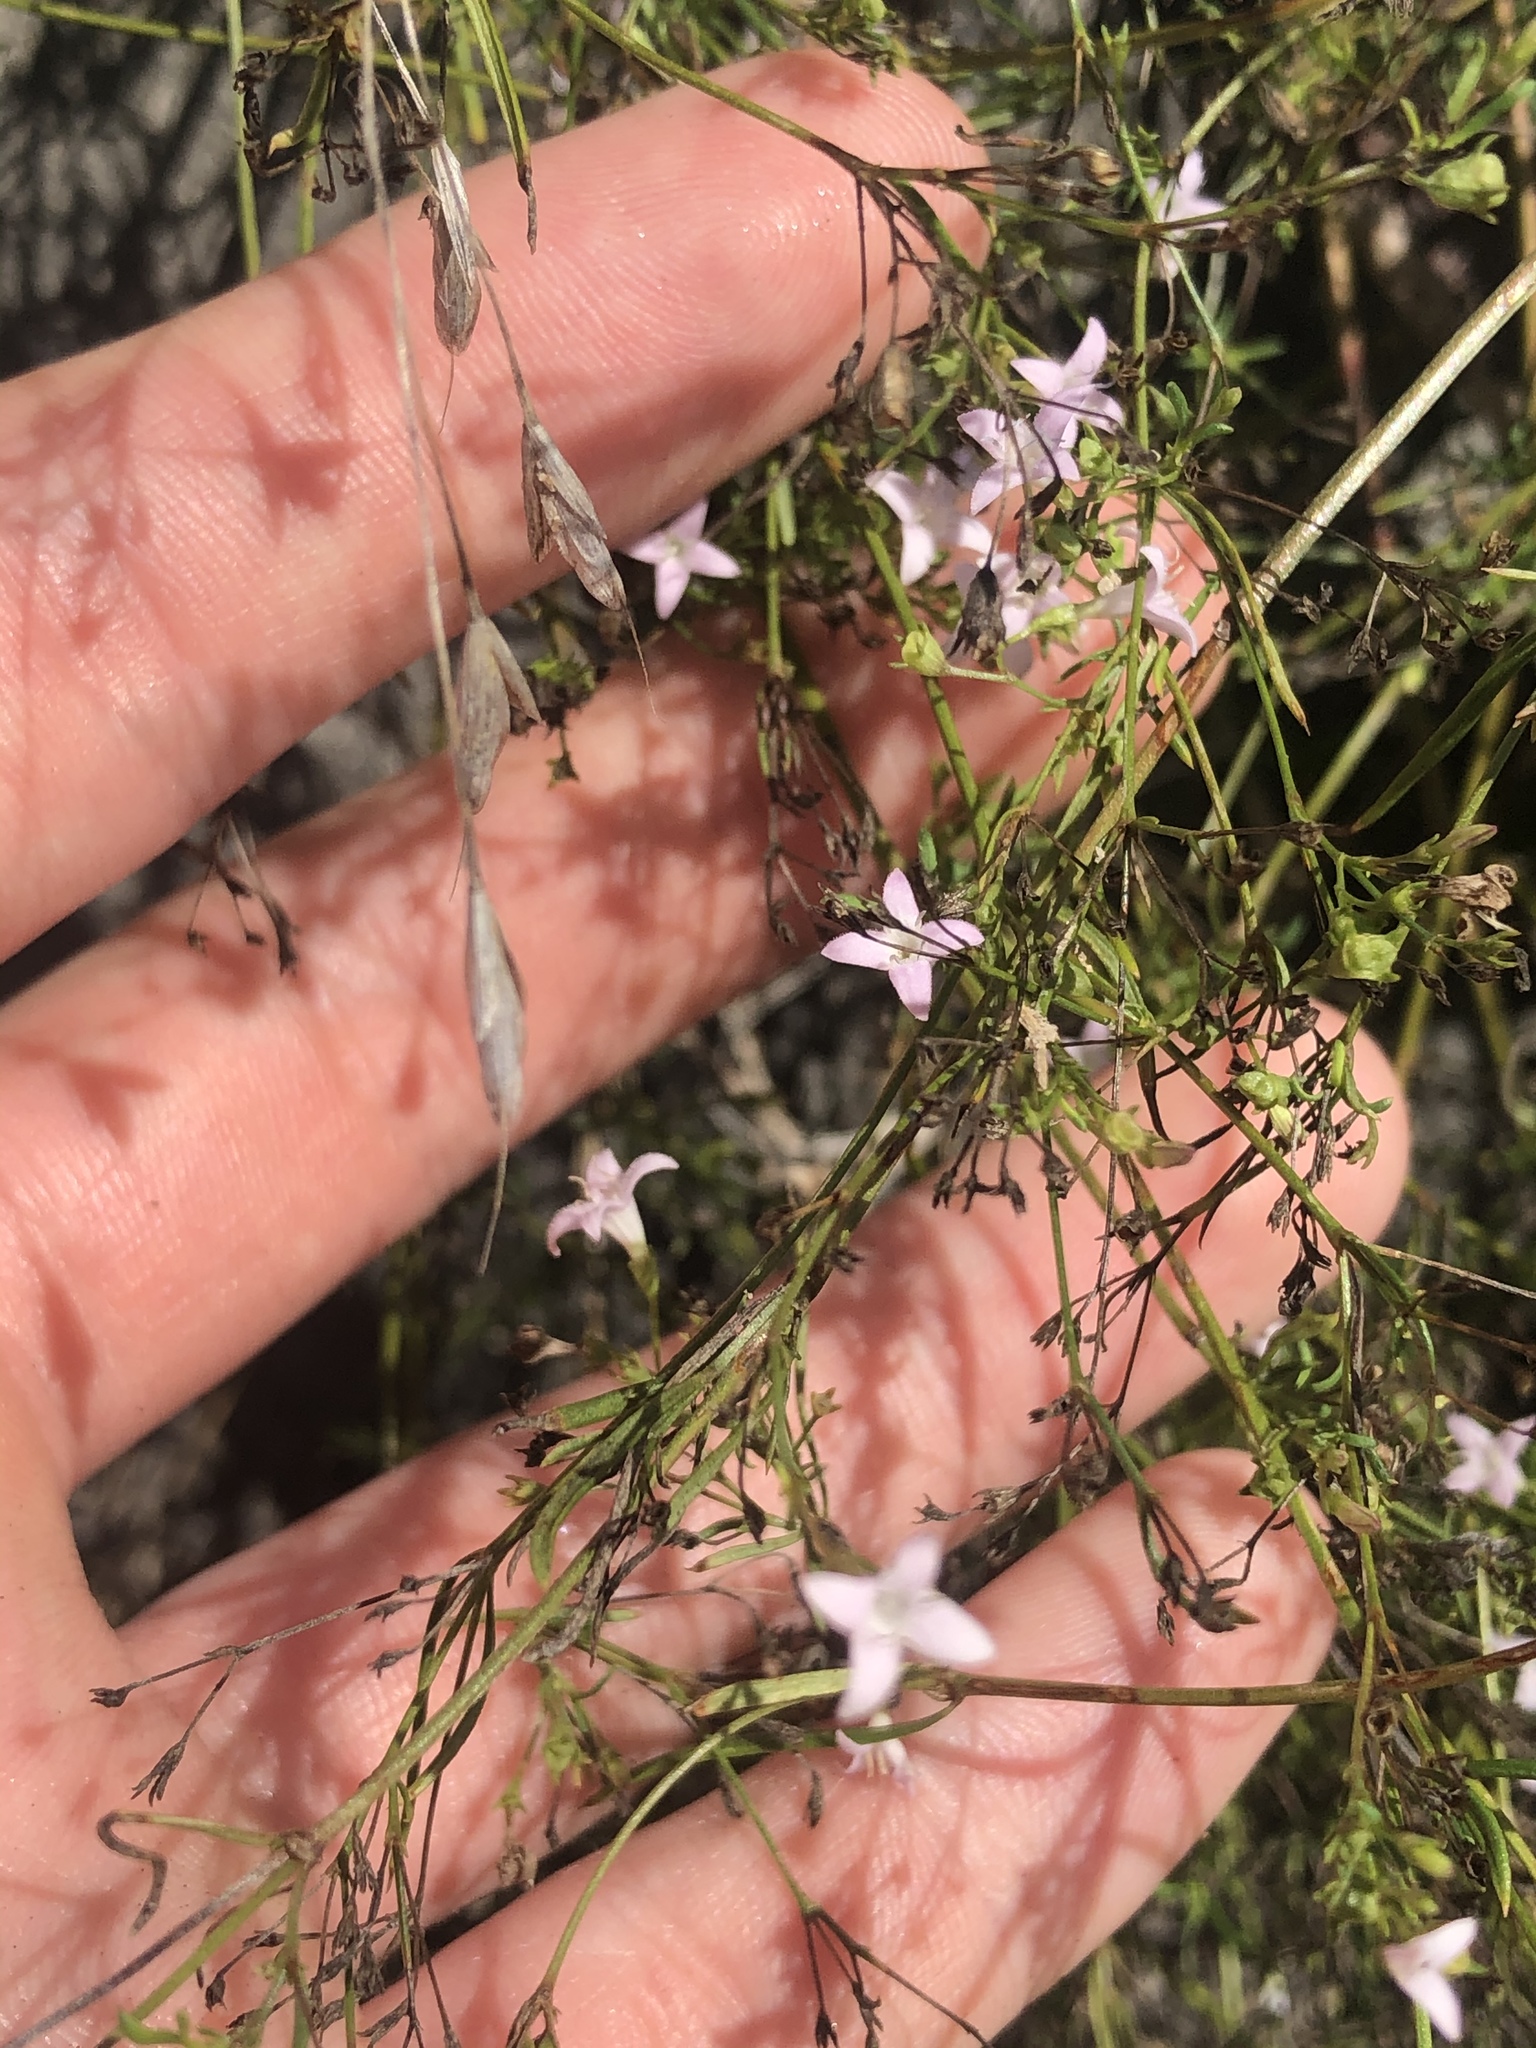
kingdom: Plantae
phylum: Tracheophyta
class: Magnoliopsida
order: Gentianales
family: Rubiaceae
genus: Stenaria
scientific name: Stenaria nigricans
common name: Diamondflowers
